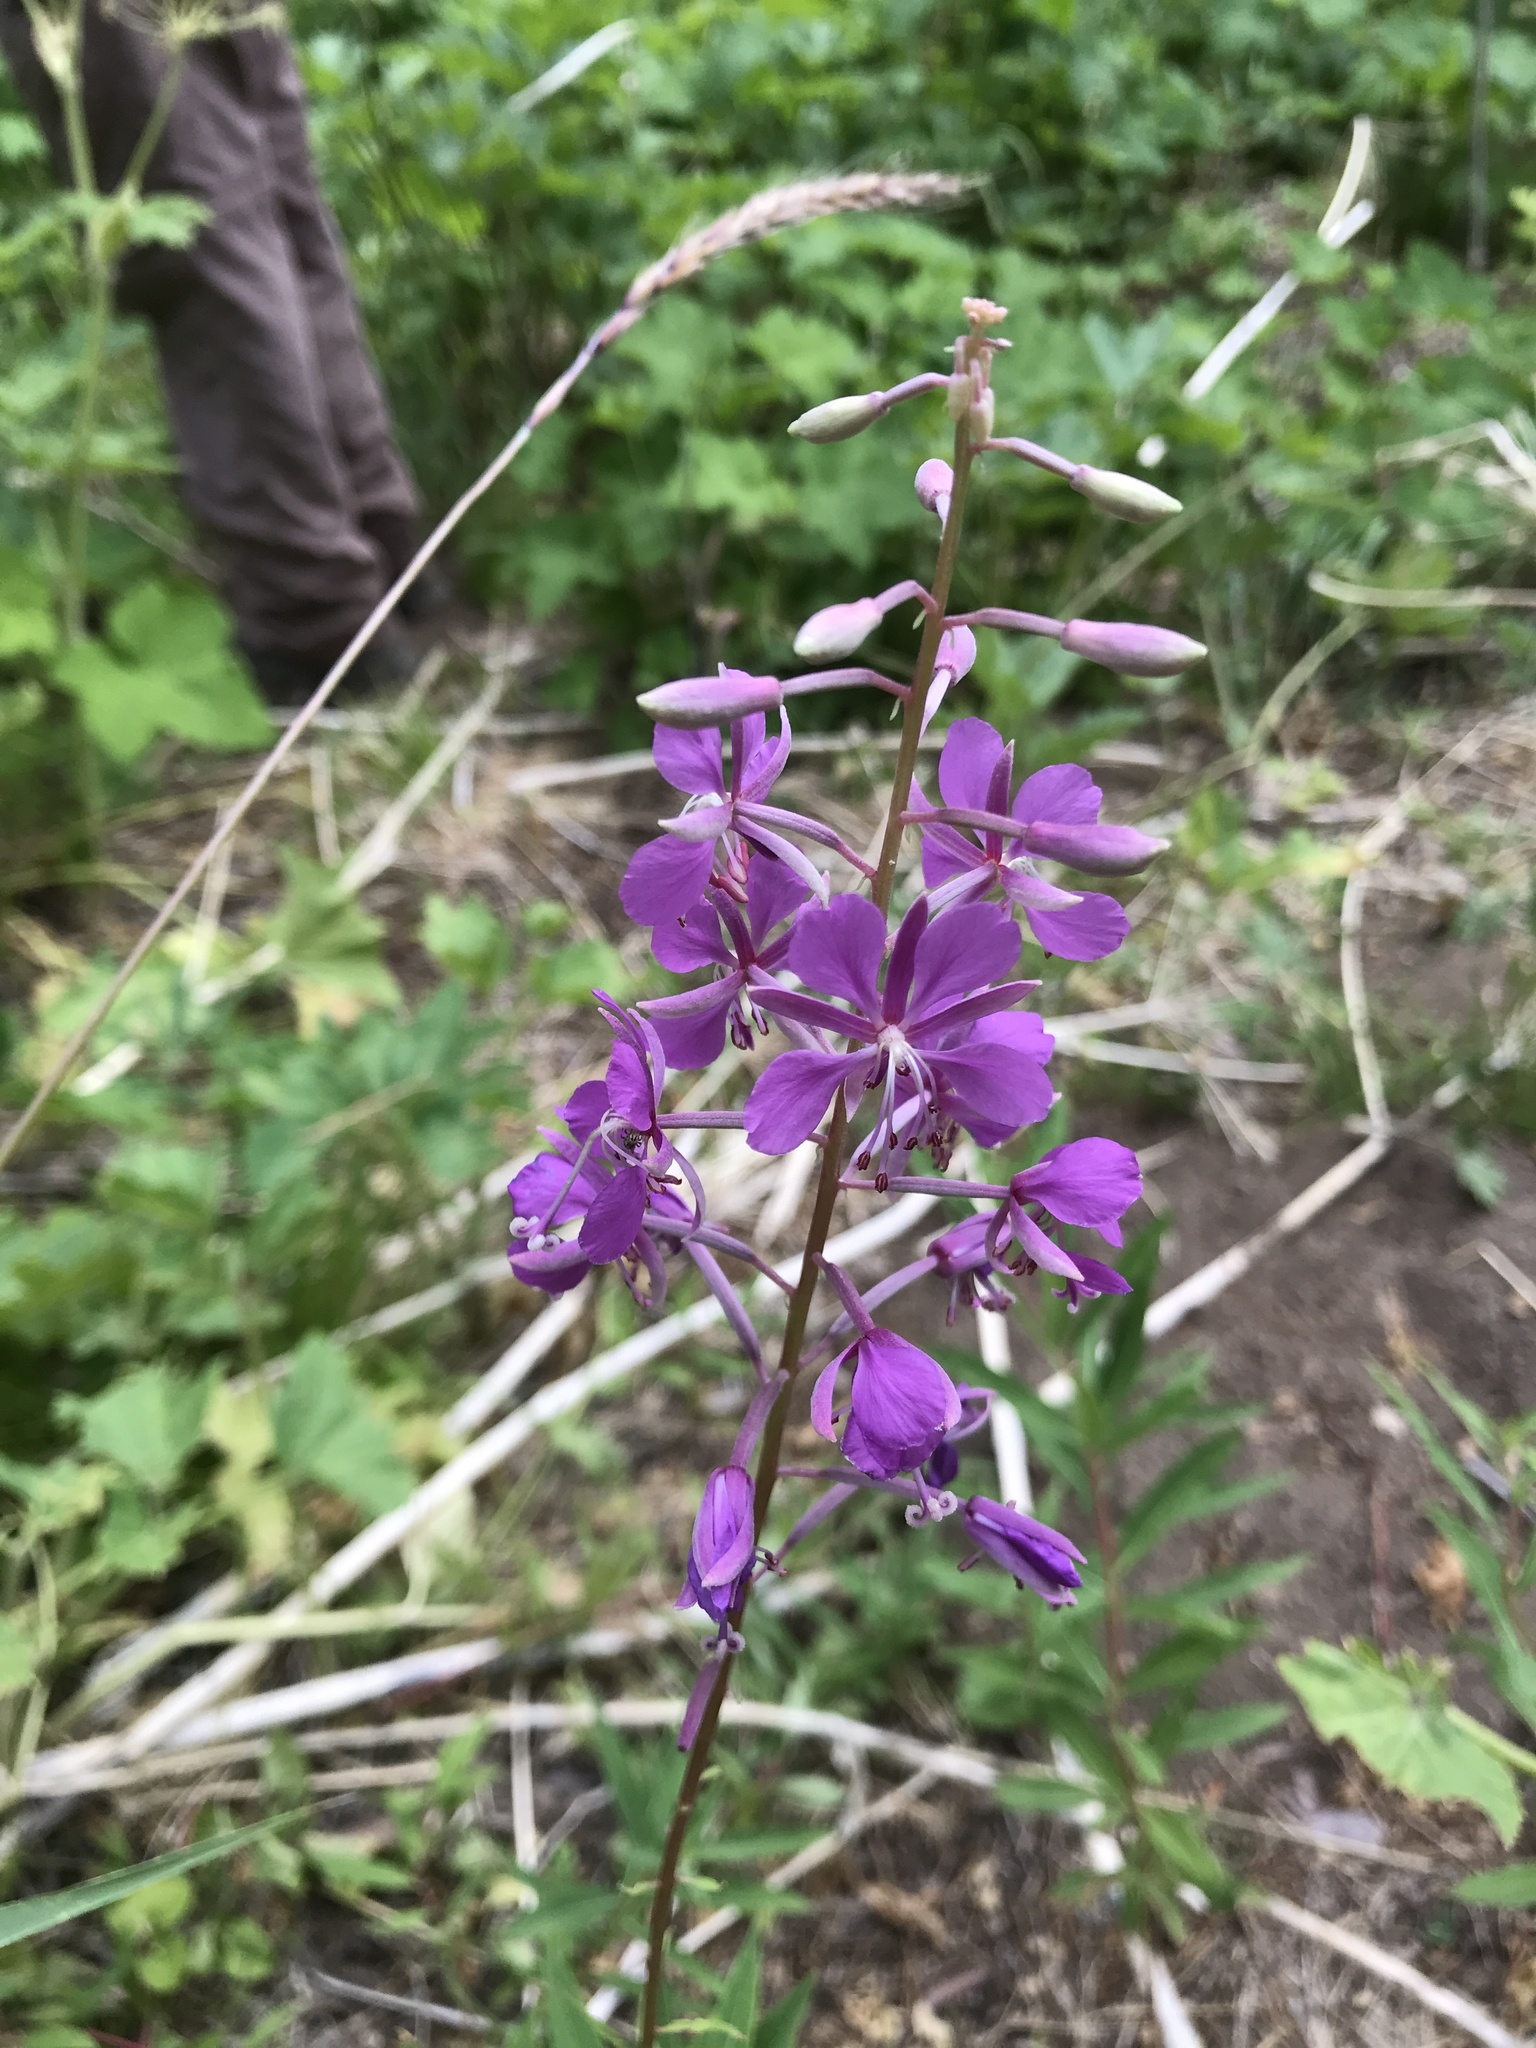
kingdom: Plantae
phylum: Tracheophyta
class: Magnoliopsida
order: Myrtales
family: Onagraceae
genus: Chamaenerion
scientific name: Chamaenerion angustifolium
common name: Fireweed
